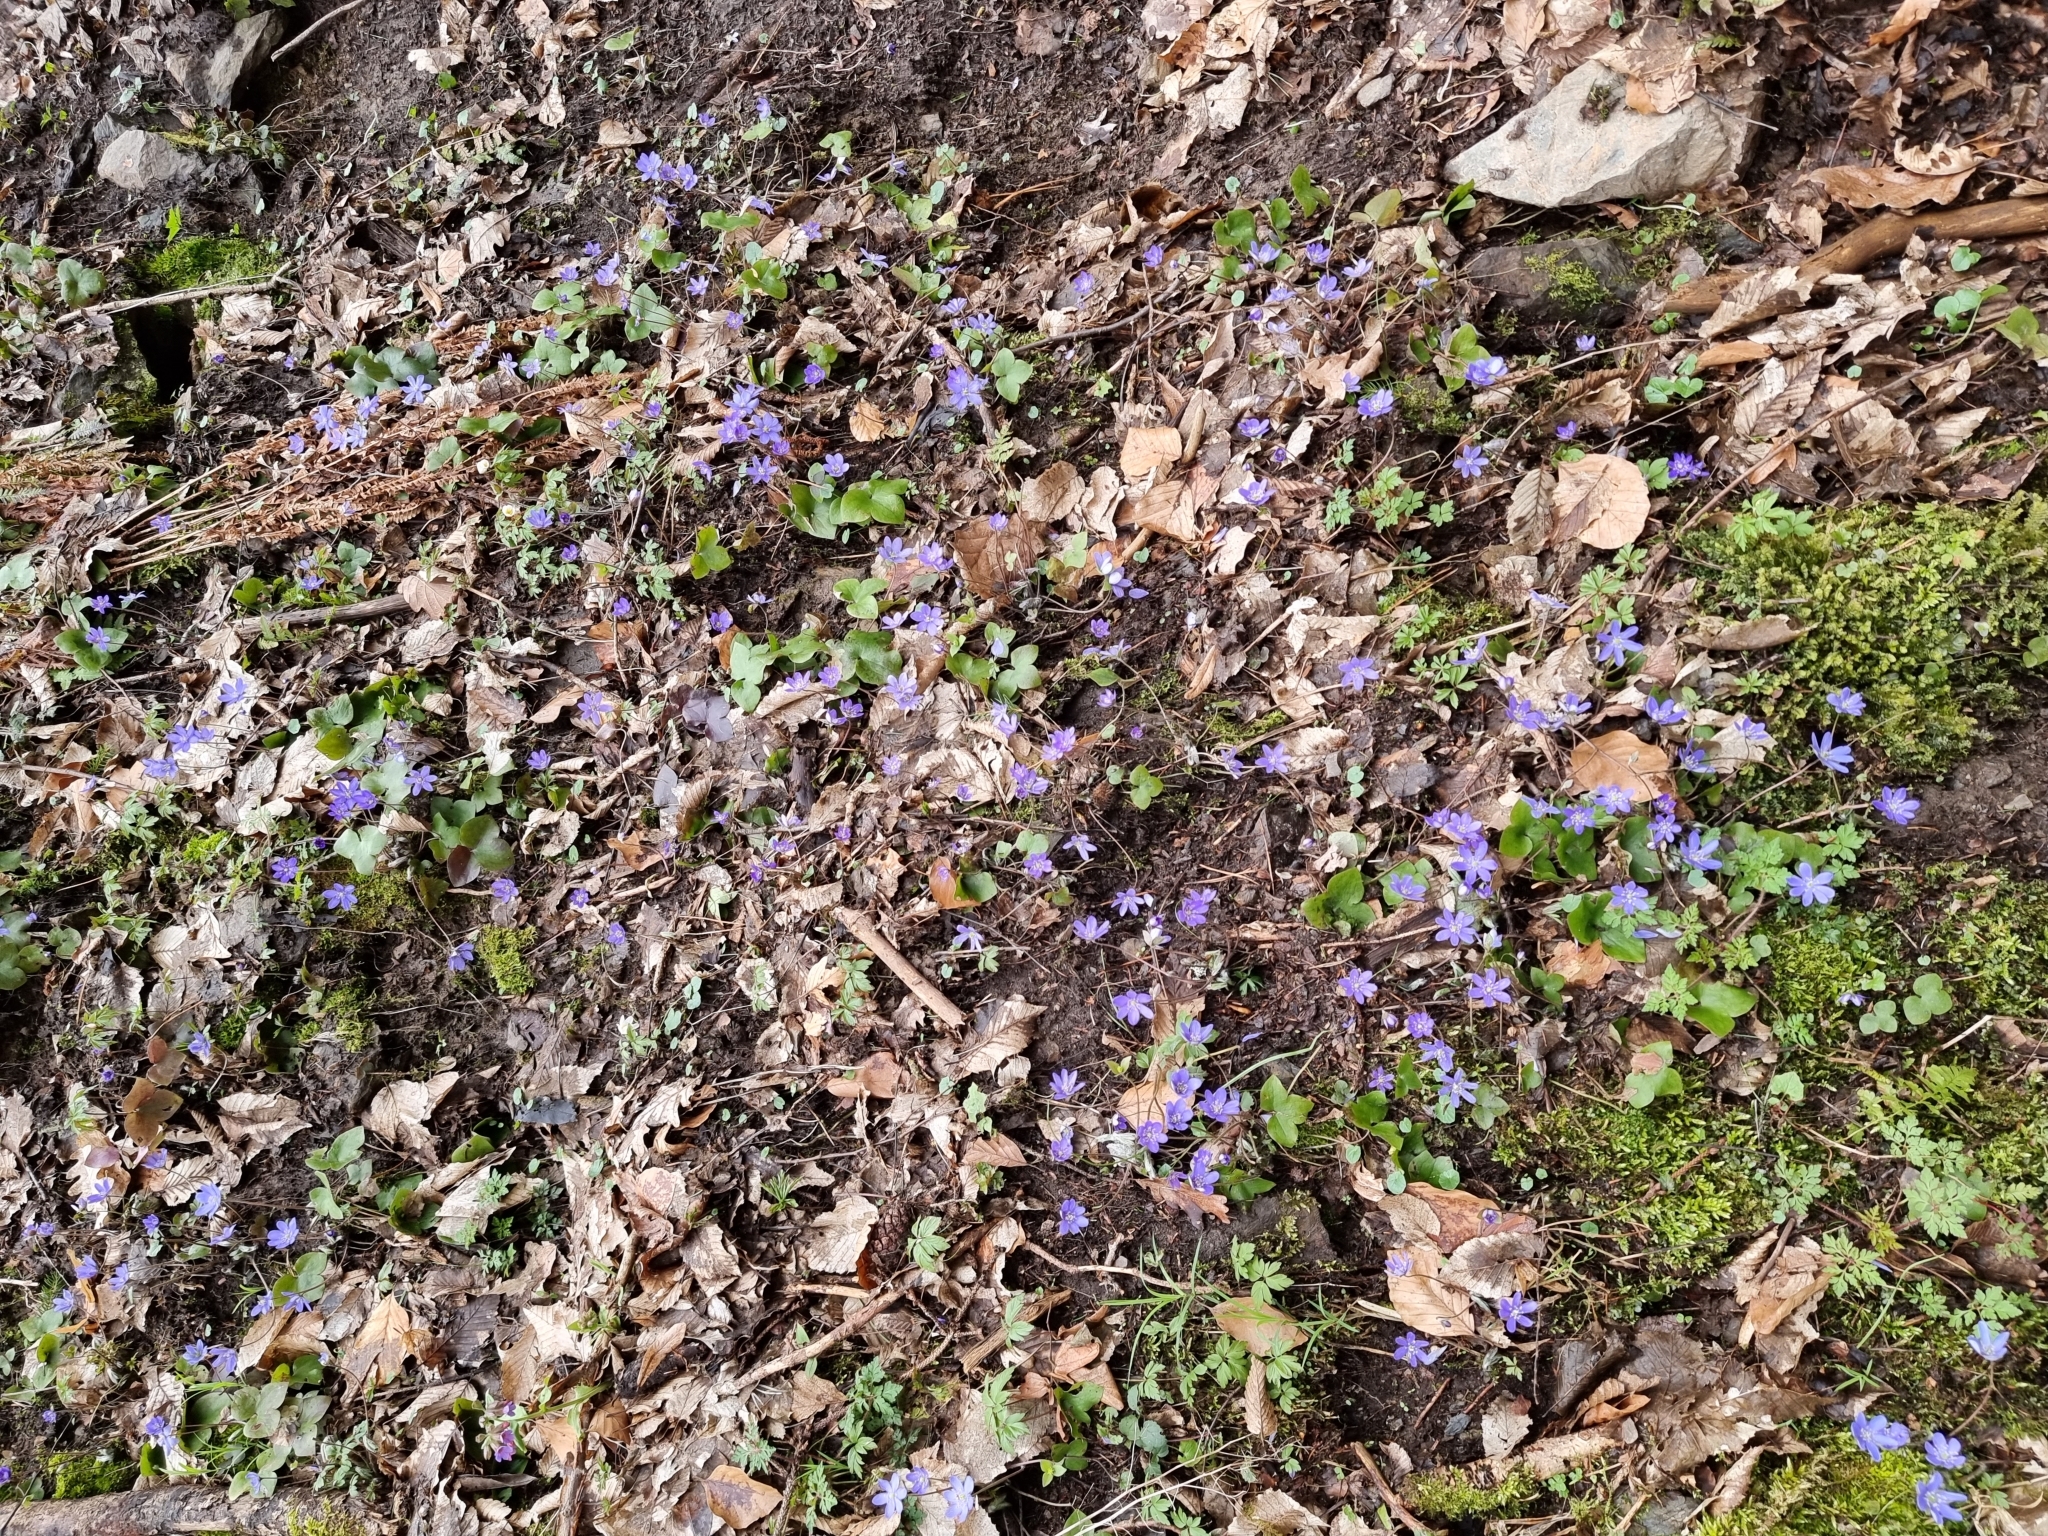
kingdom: Plantae
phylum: Tracheophyta
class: Magnoliopsida
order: Ranunculales
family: Ranunculaceae
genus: Hepatica
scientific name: Hepatica nobilis
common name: Liverleaf
